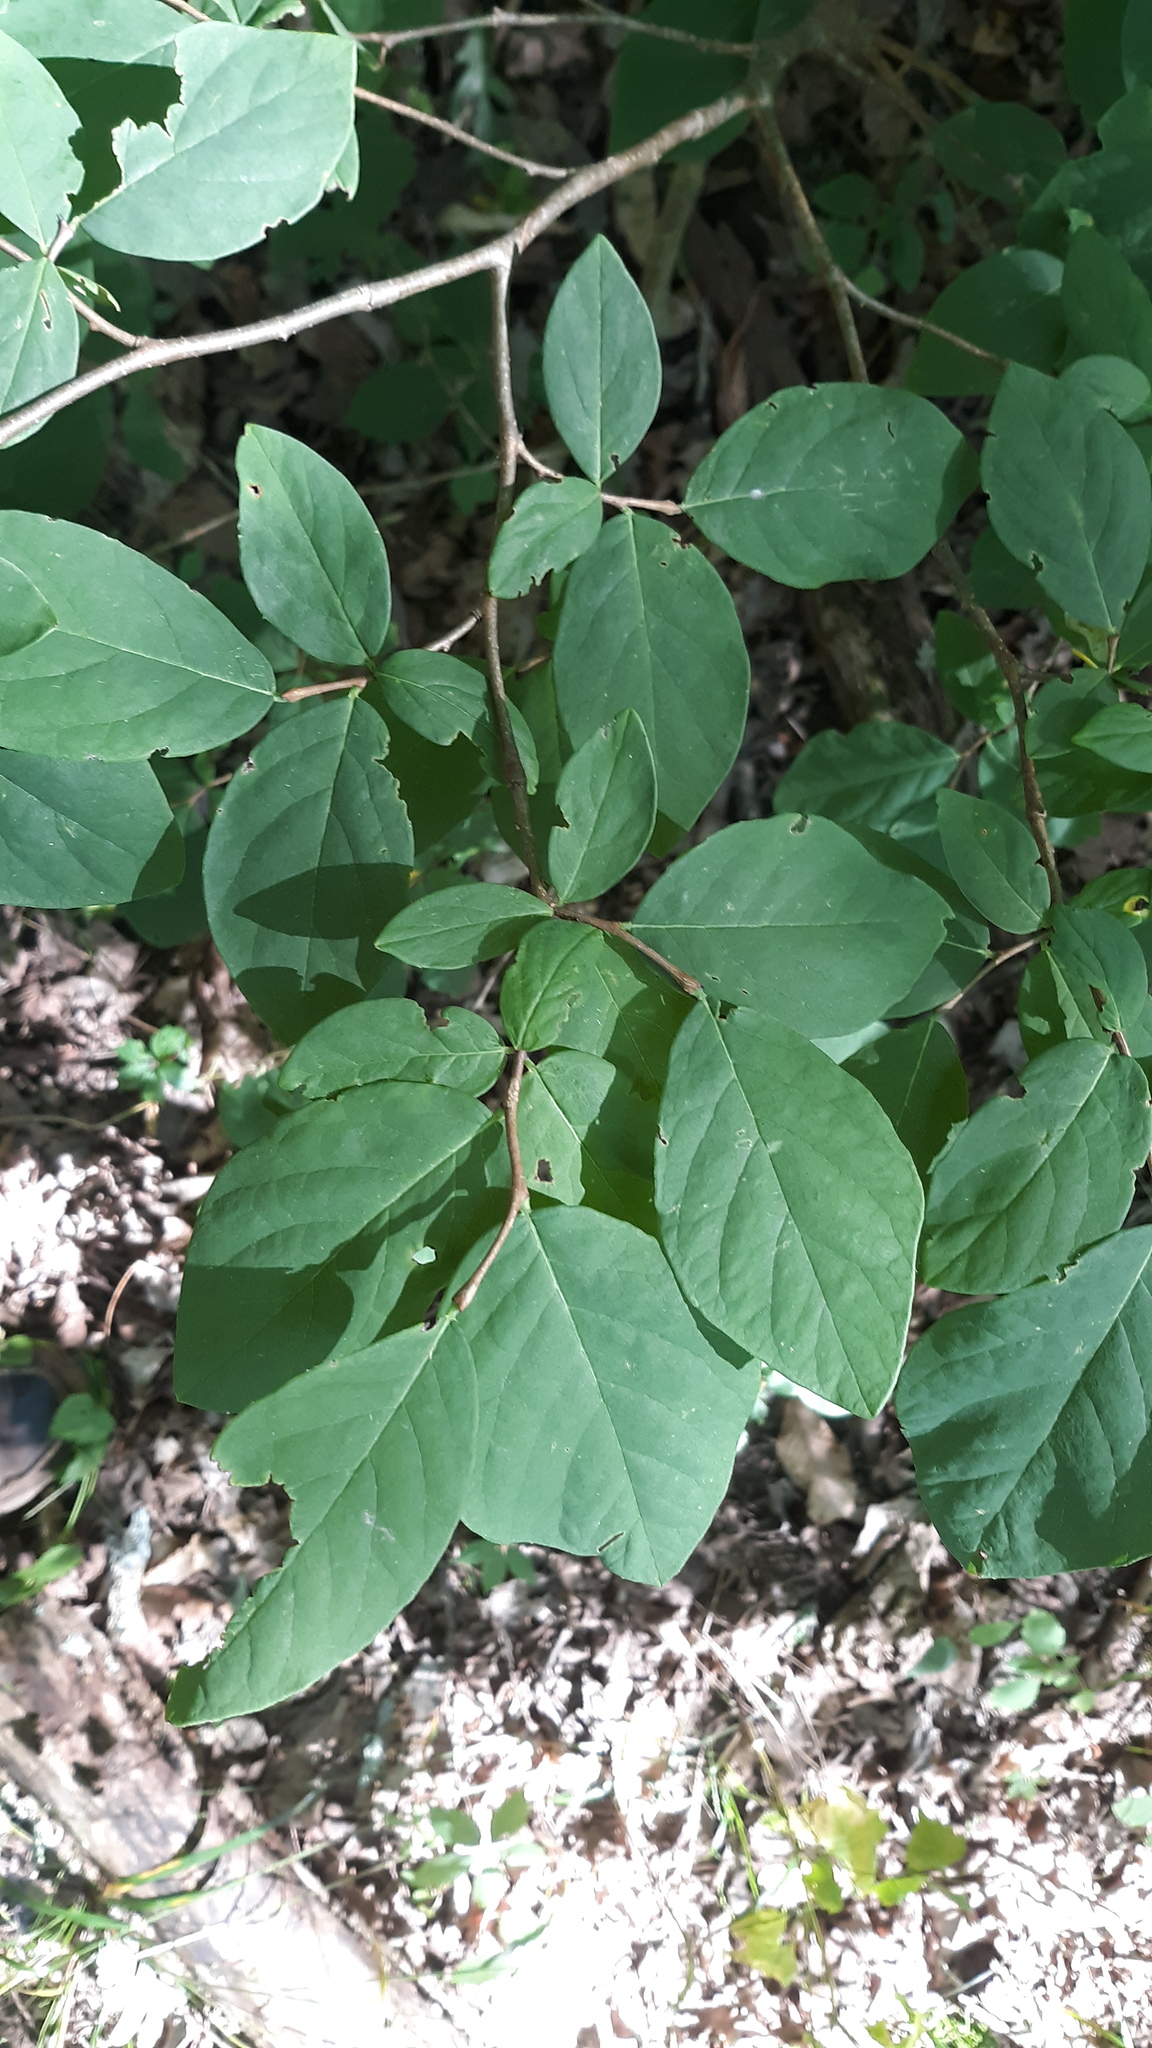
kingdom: Plantae
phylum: Tracheophyta
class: Magnoliopsida
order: Malvales
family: Thymelaeaceae
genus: Dirca
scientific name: Dirca palustris
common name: Leatherwood
